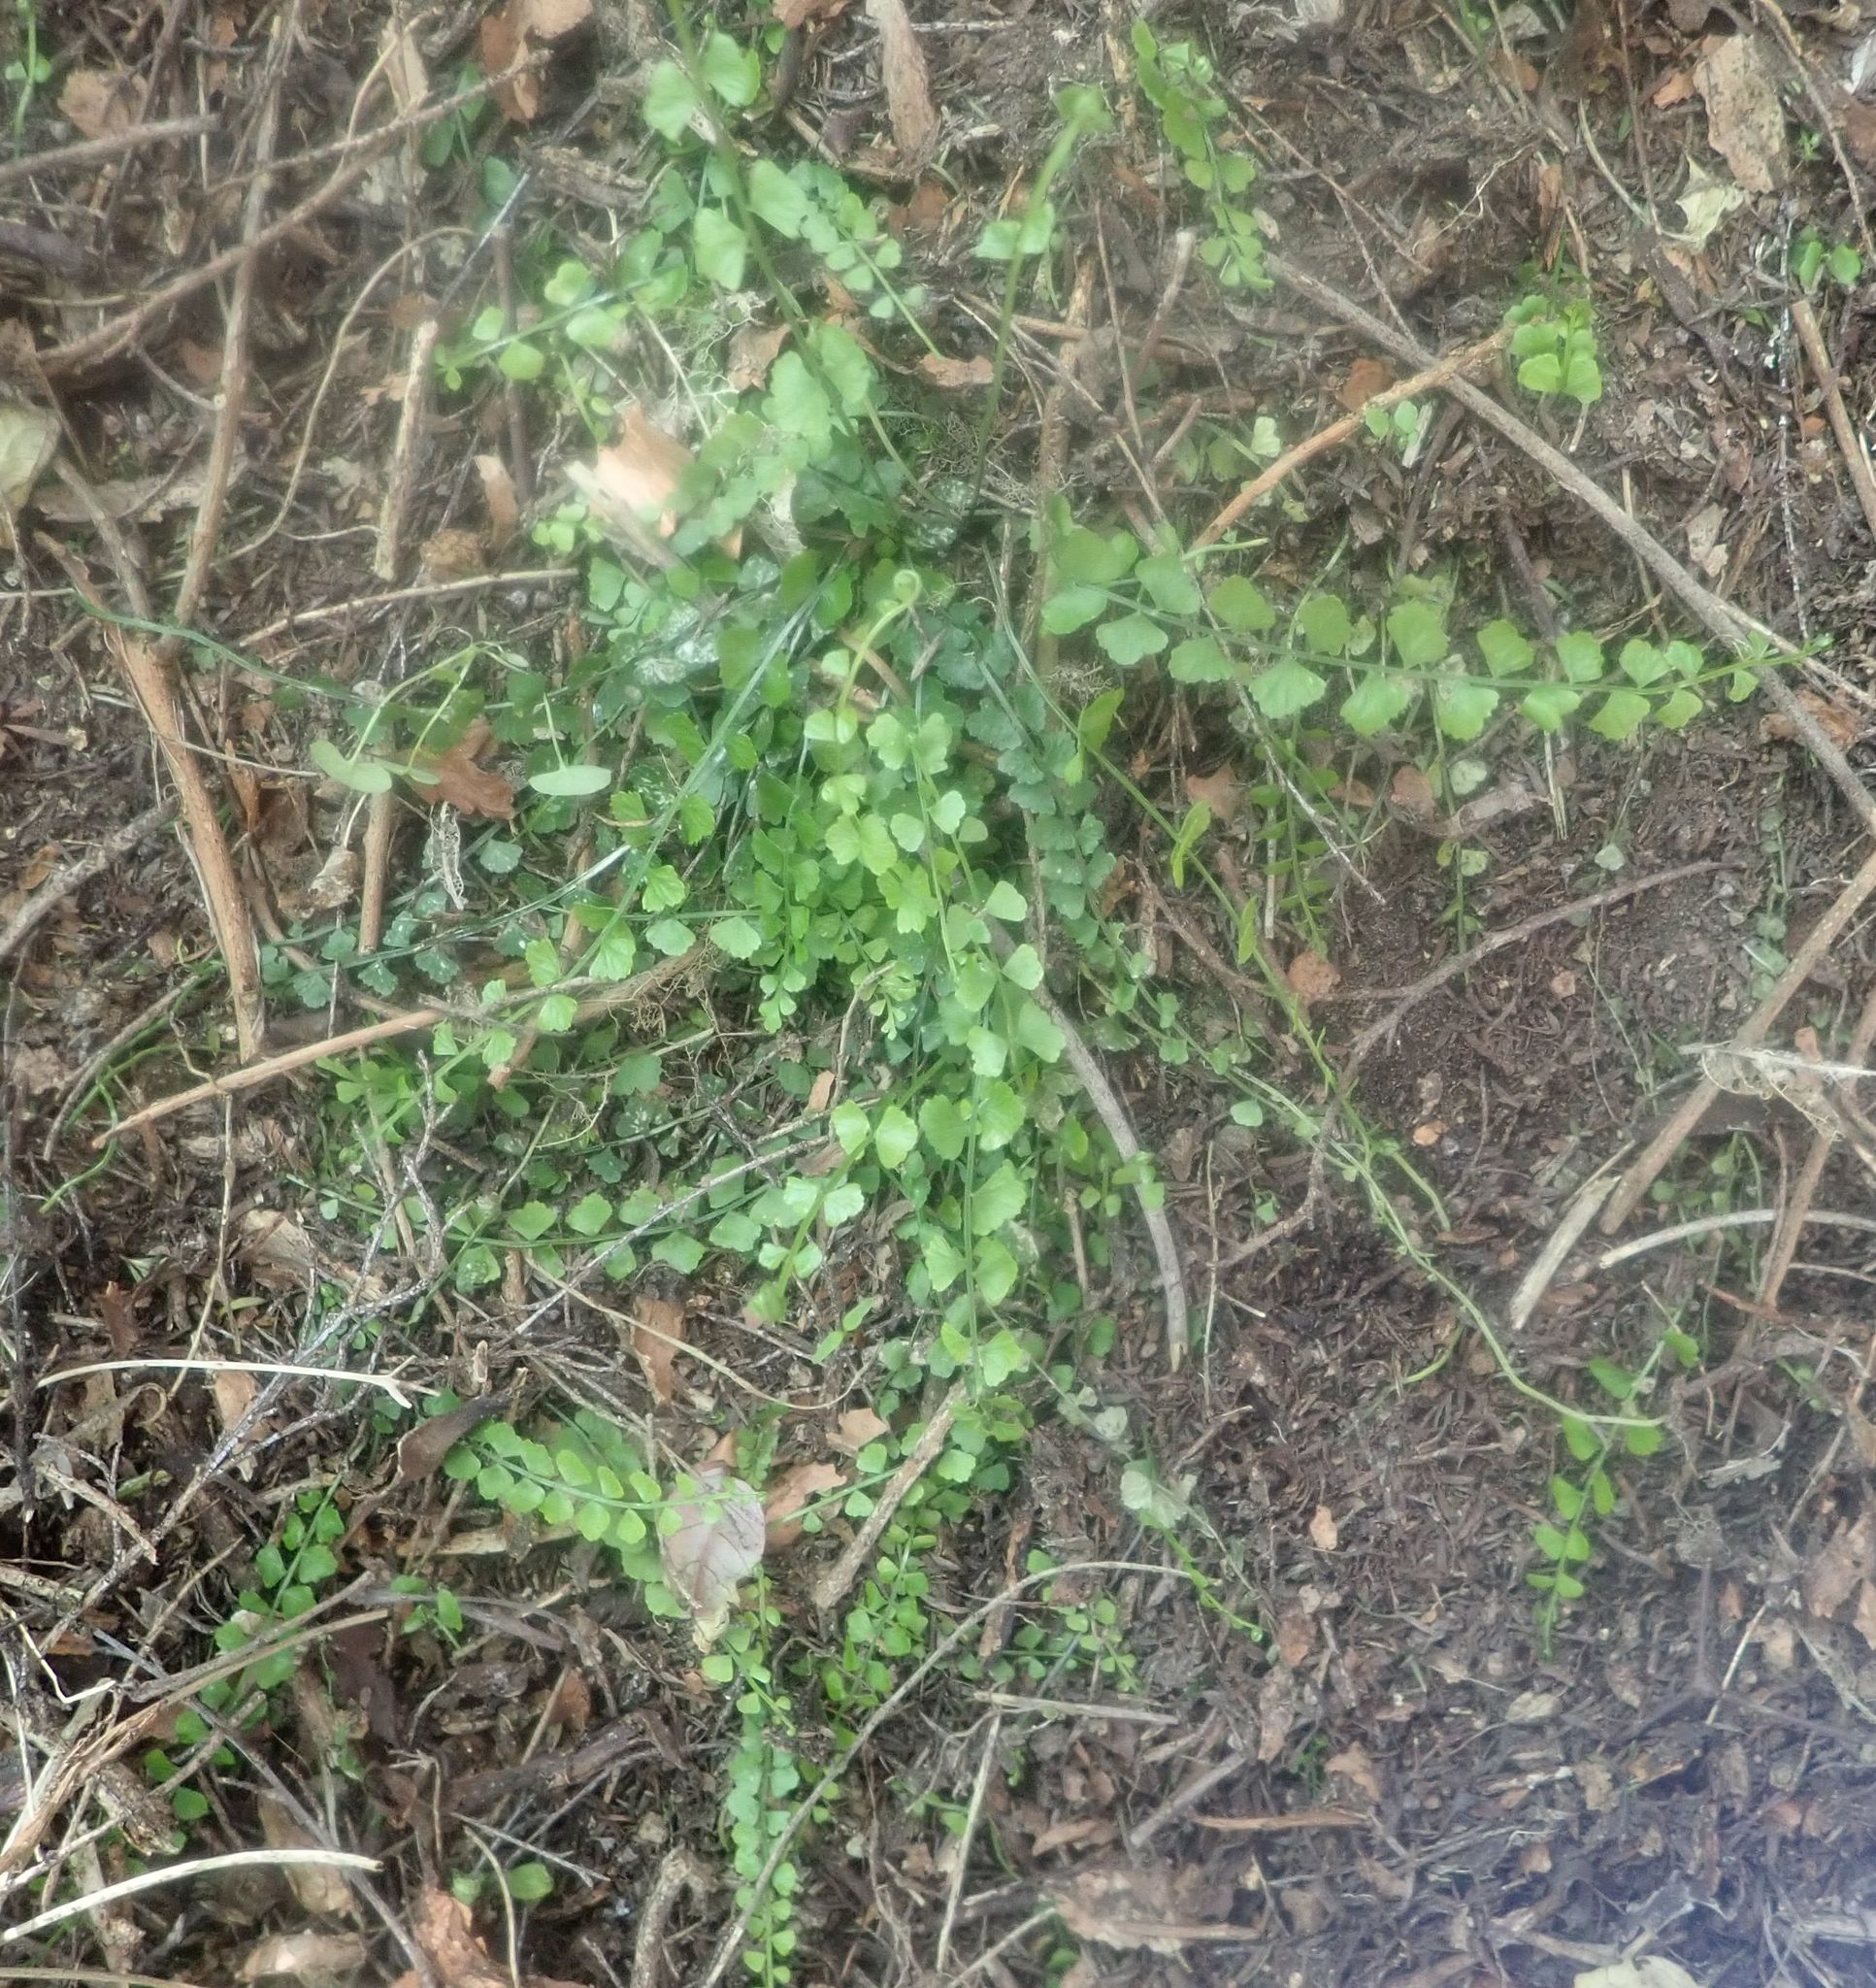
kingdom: Plantae
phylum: Tracheophyta
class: Polypodiopsida
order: Polypodiales
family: Aspleniaceae
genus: Asplenium
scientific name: Asplenium flabellifolium
